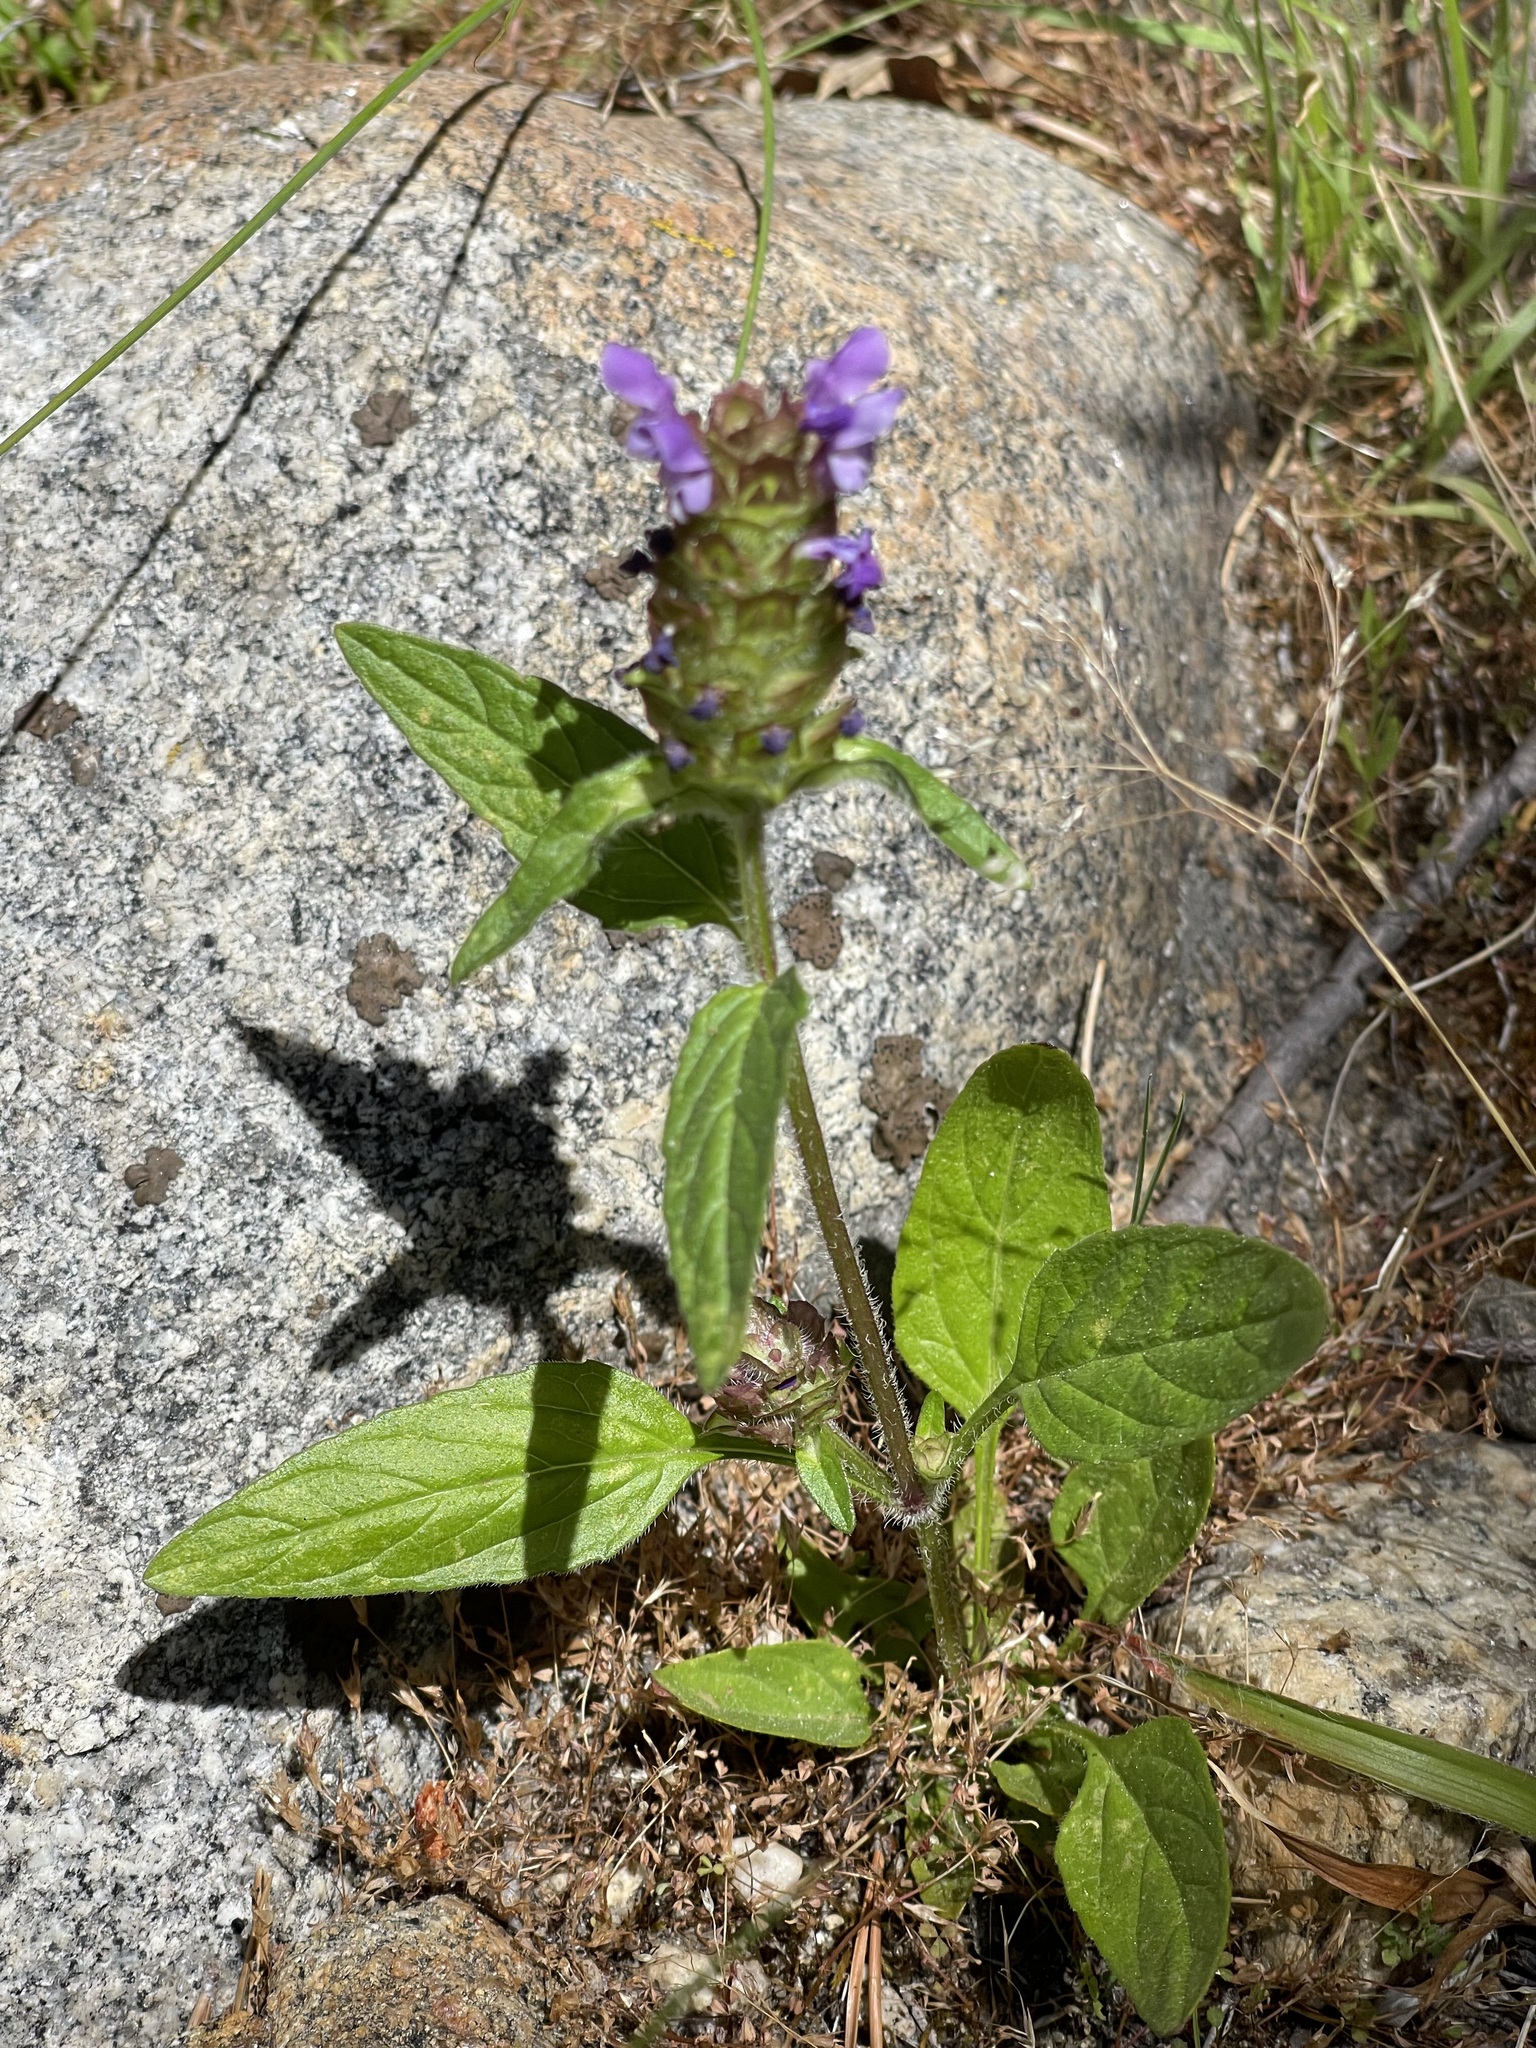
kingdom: Plantae
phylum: Tracheophyta
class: Magnoliopsida
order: Lamiales
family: Lamiaceae
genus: Prunella
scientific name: Prunella vulgaris
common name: Heal-all
